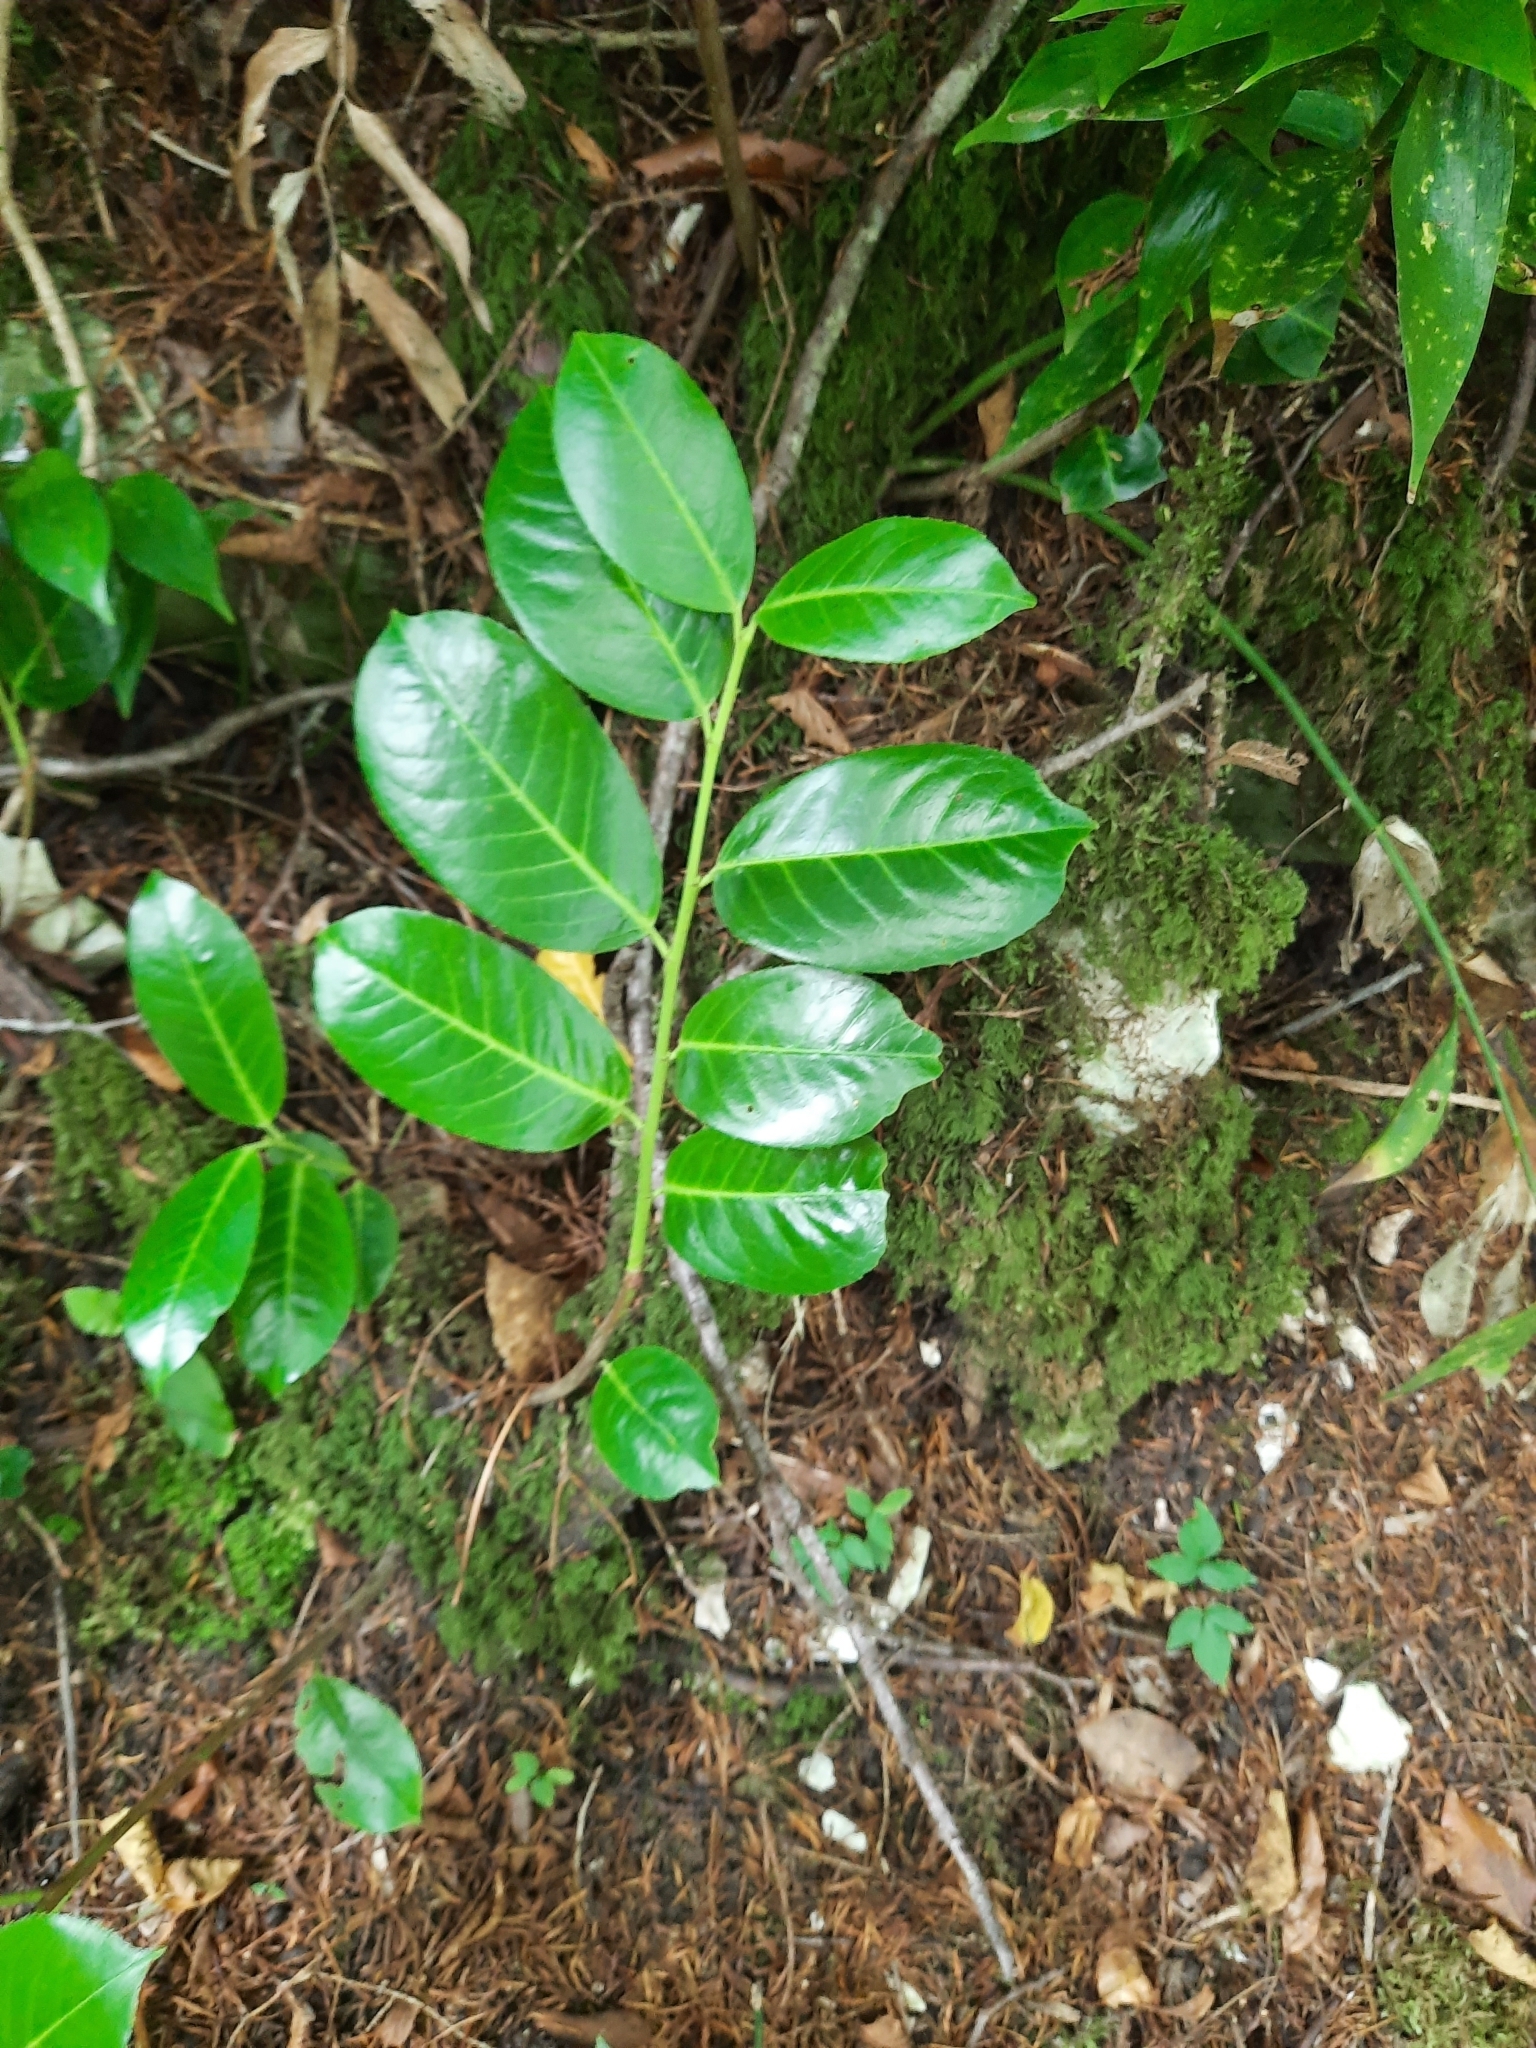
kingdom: Plantae
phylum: Tracheophyta
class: Magnoliopsida
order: Rosales
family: Rosaceae
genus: Prunus
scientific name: Prunus laurocerasus
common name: Cherry laurel
